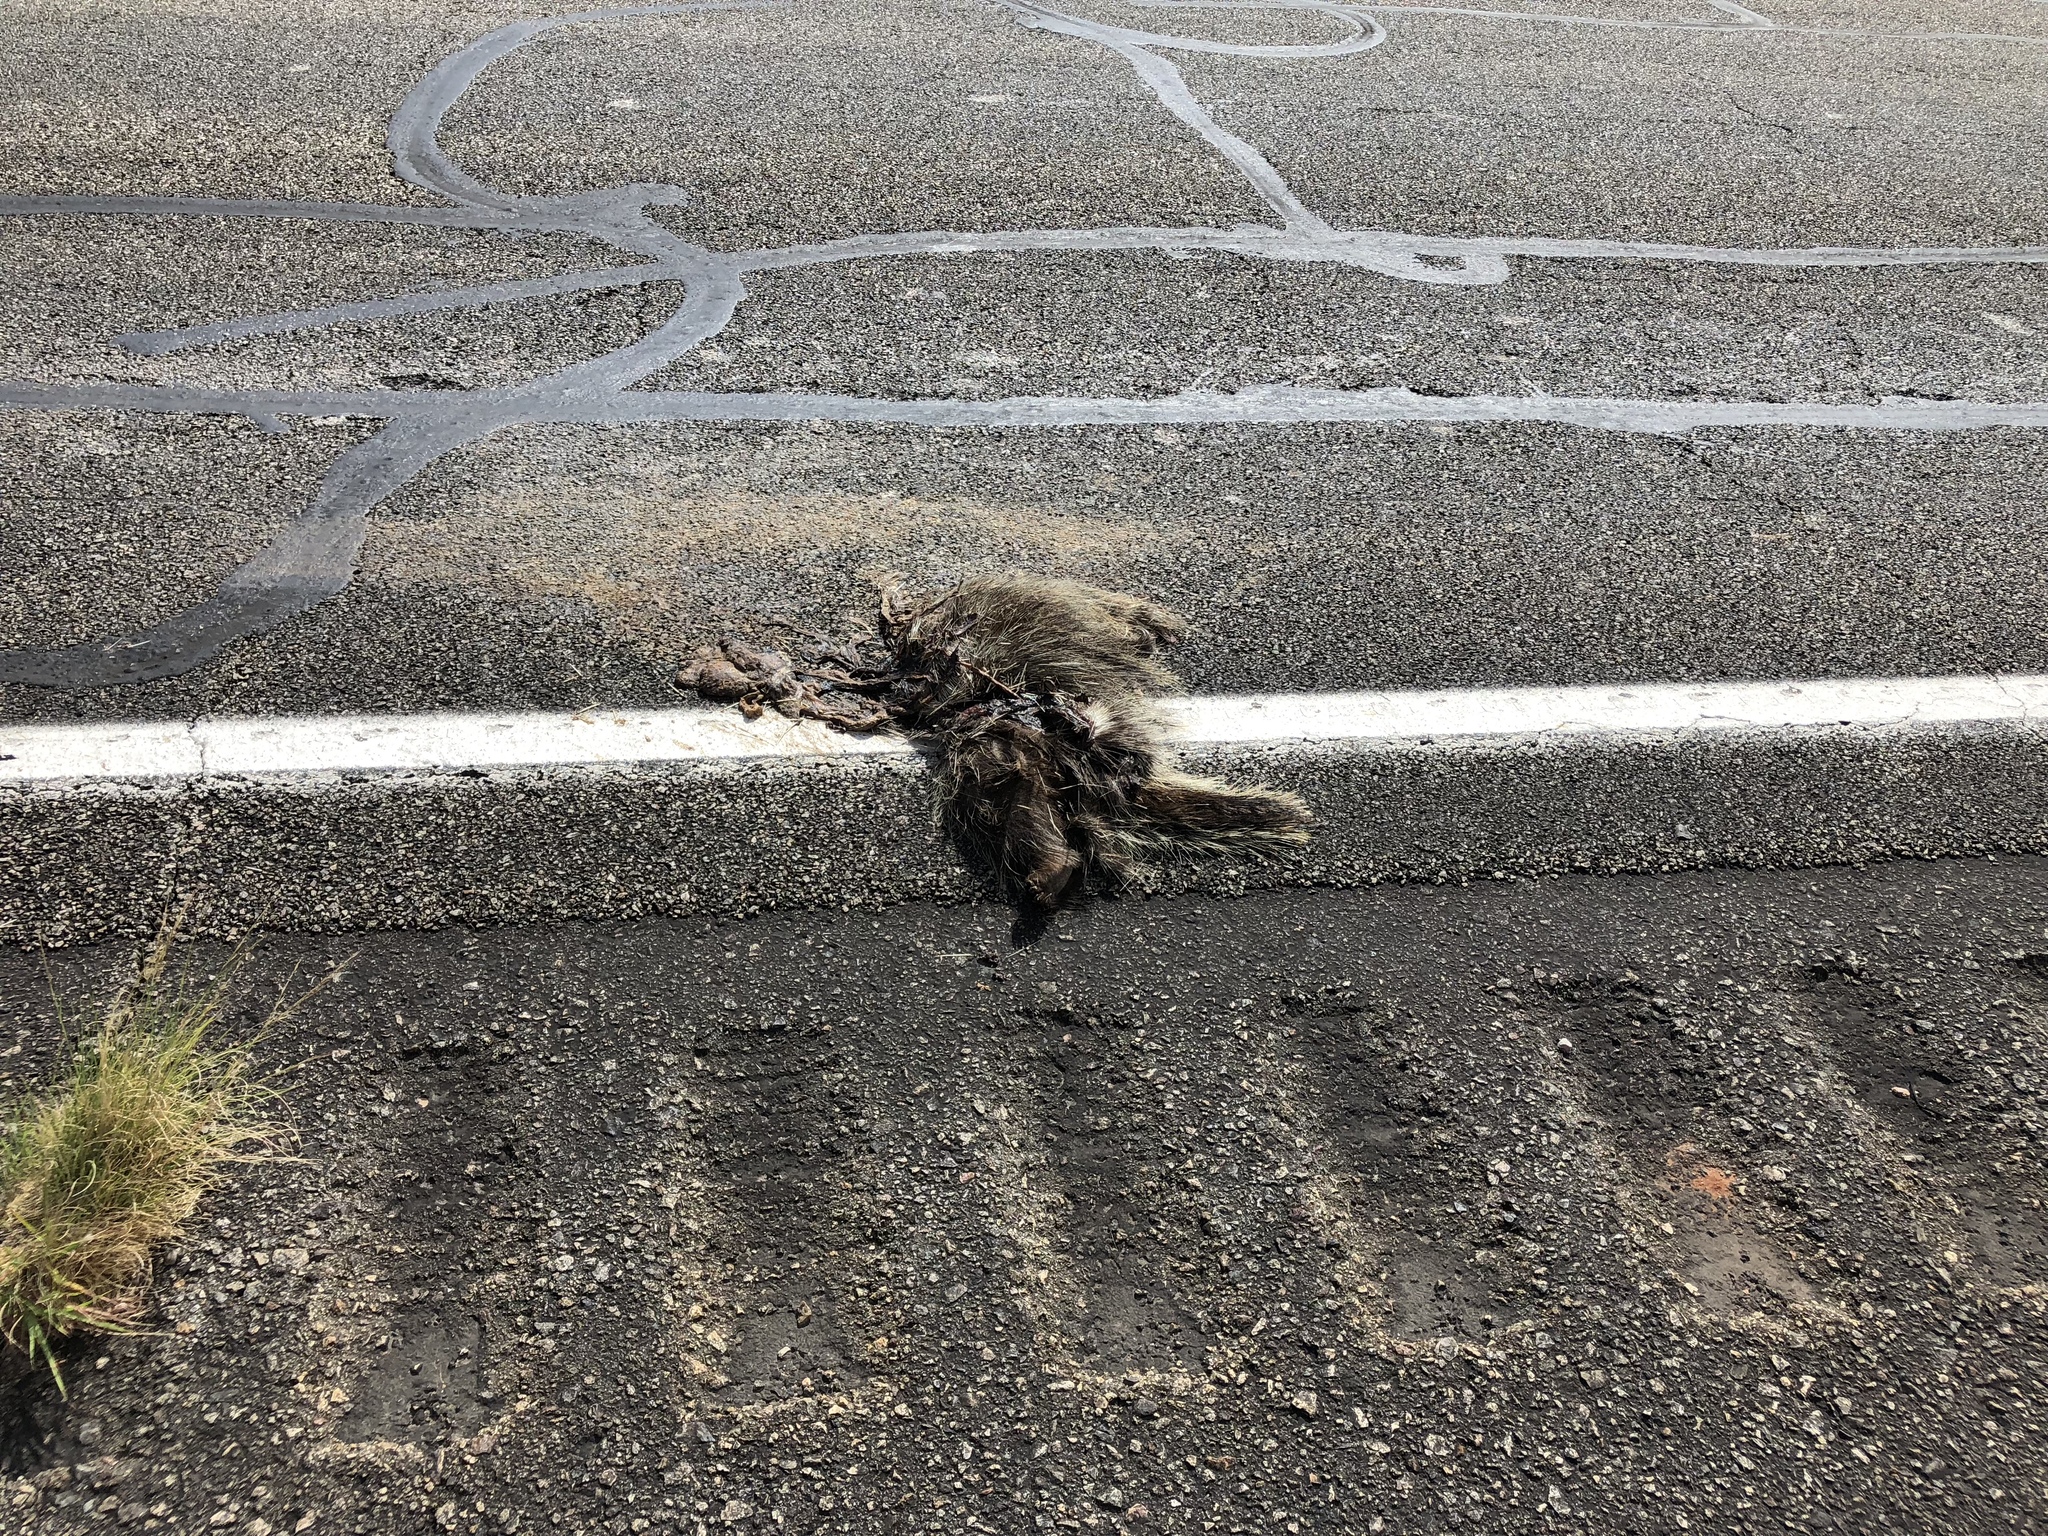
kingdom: Animalia
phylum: Chordata
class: Mammalia
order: Rodentia
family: Erethizontidae
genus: Erethizon
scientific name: Erethizon dorsatus
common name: North american porcupine
